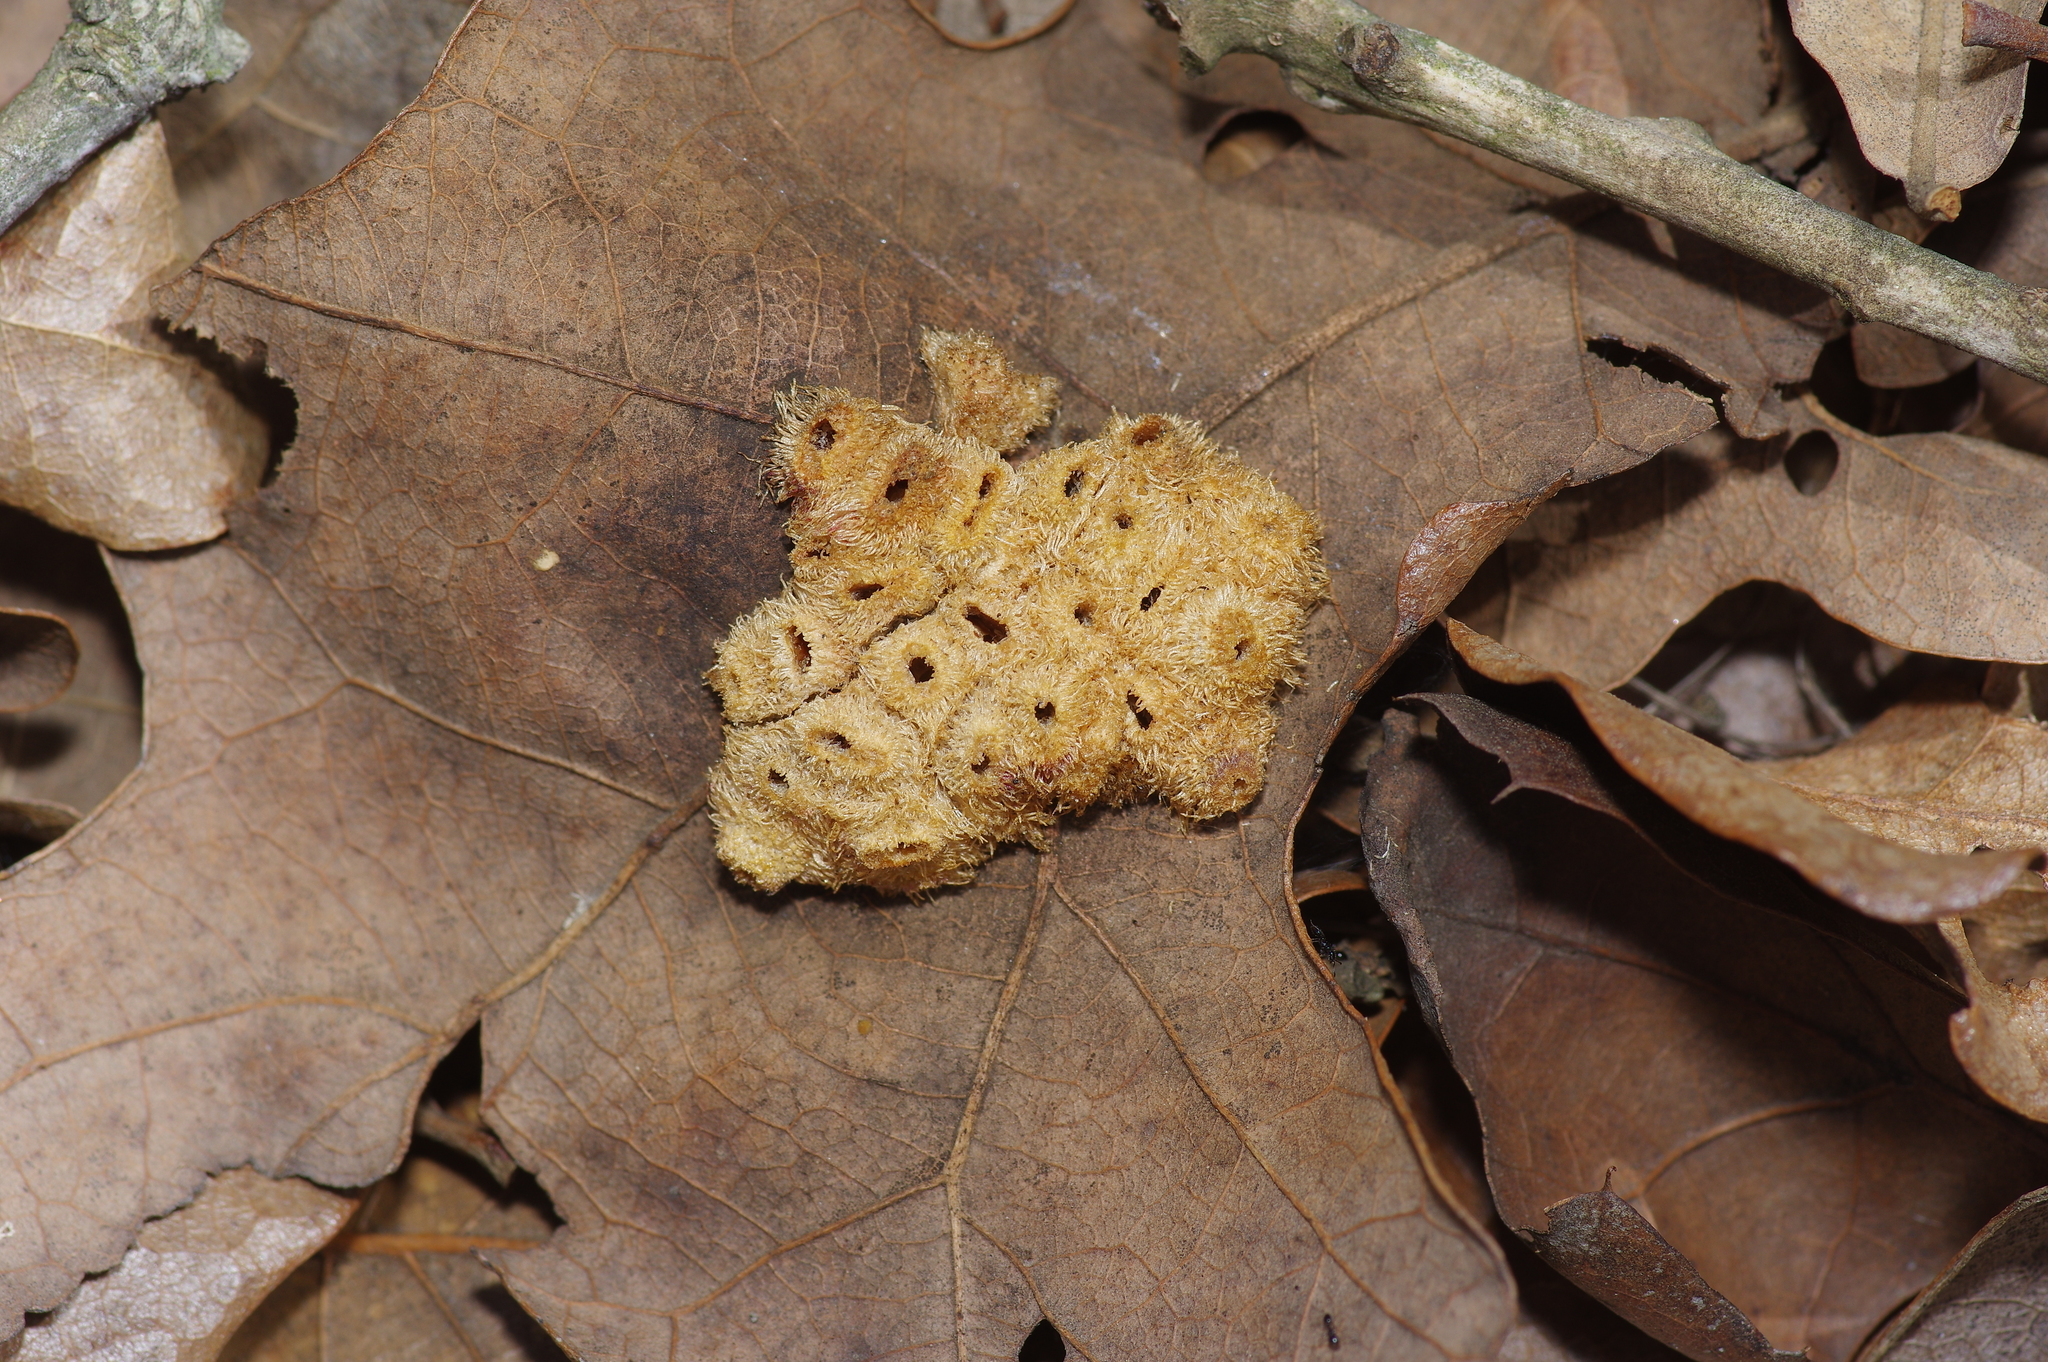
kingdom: Animalia
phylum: Arthropoda
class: Insecta
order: Hymenoptera
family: Cynipidae
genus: Andricus
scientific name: Andricus
